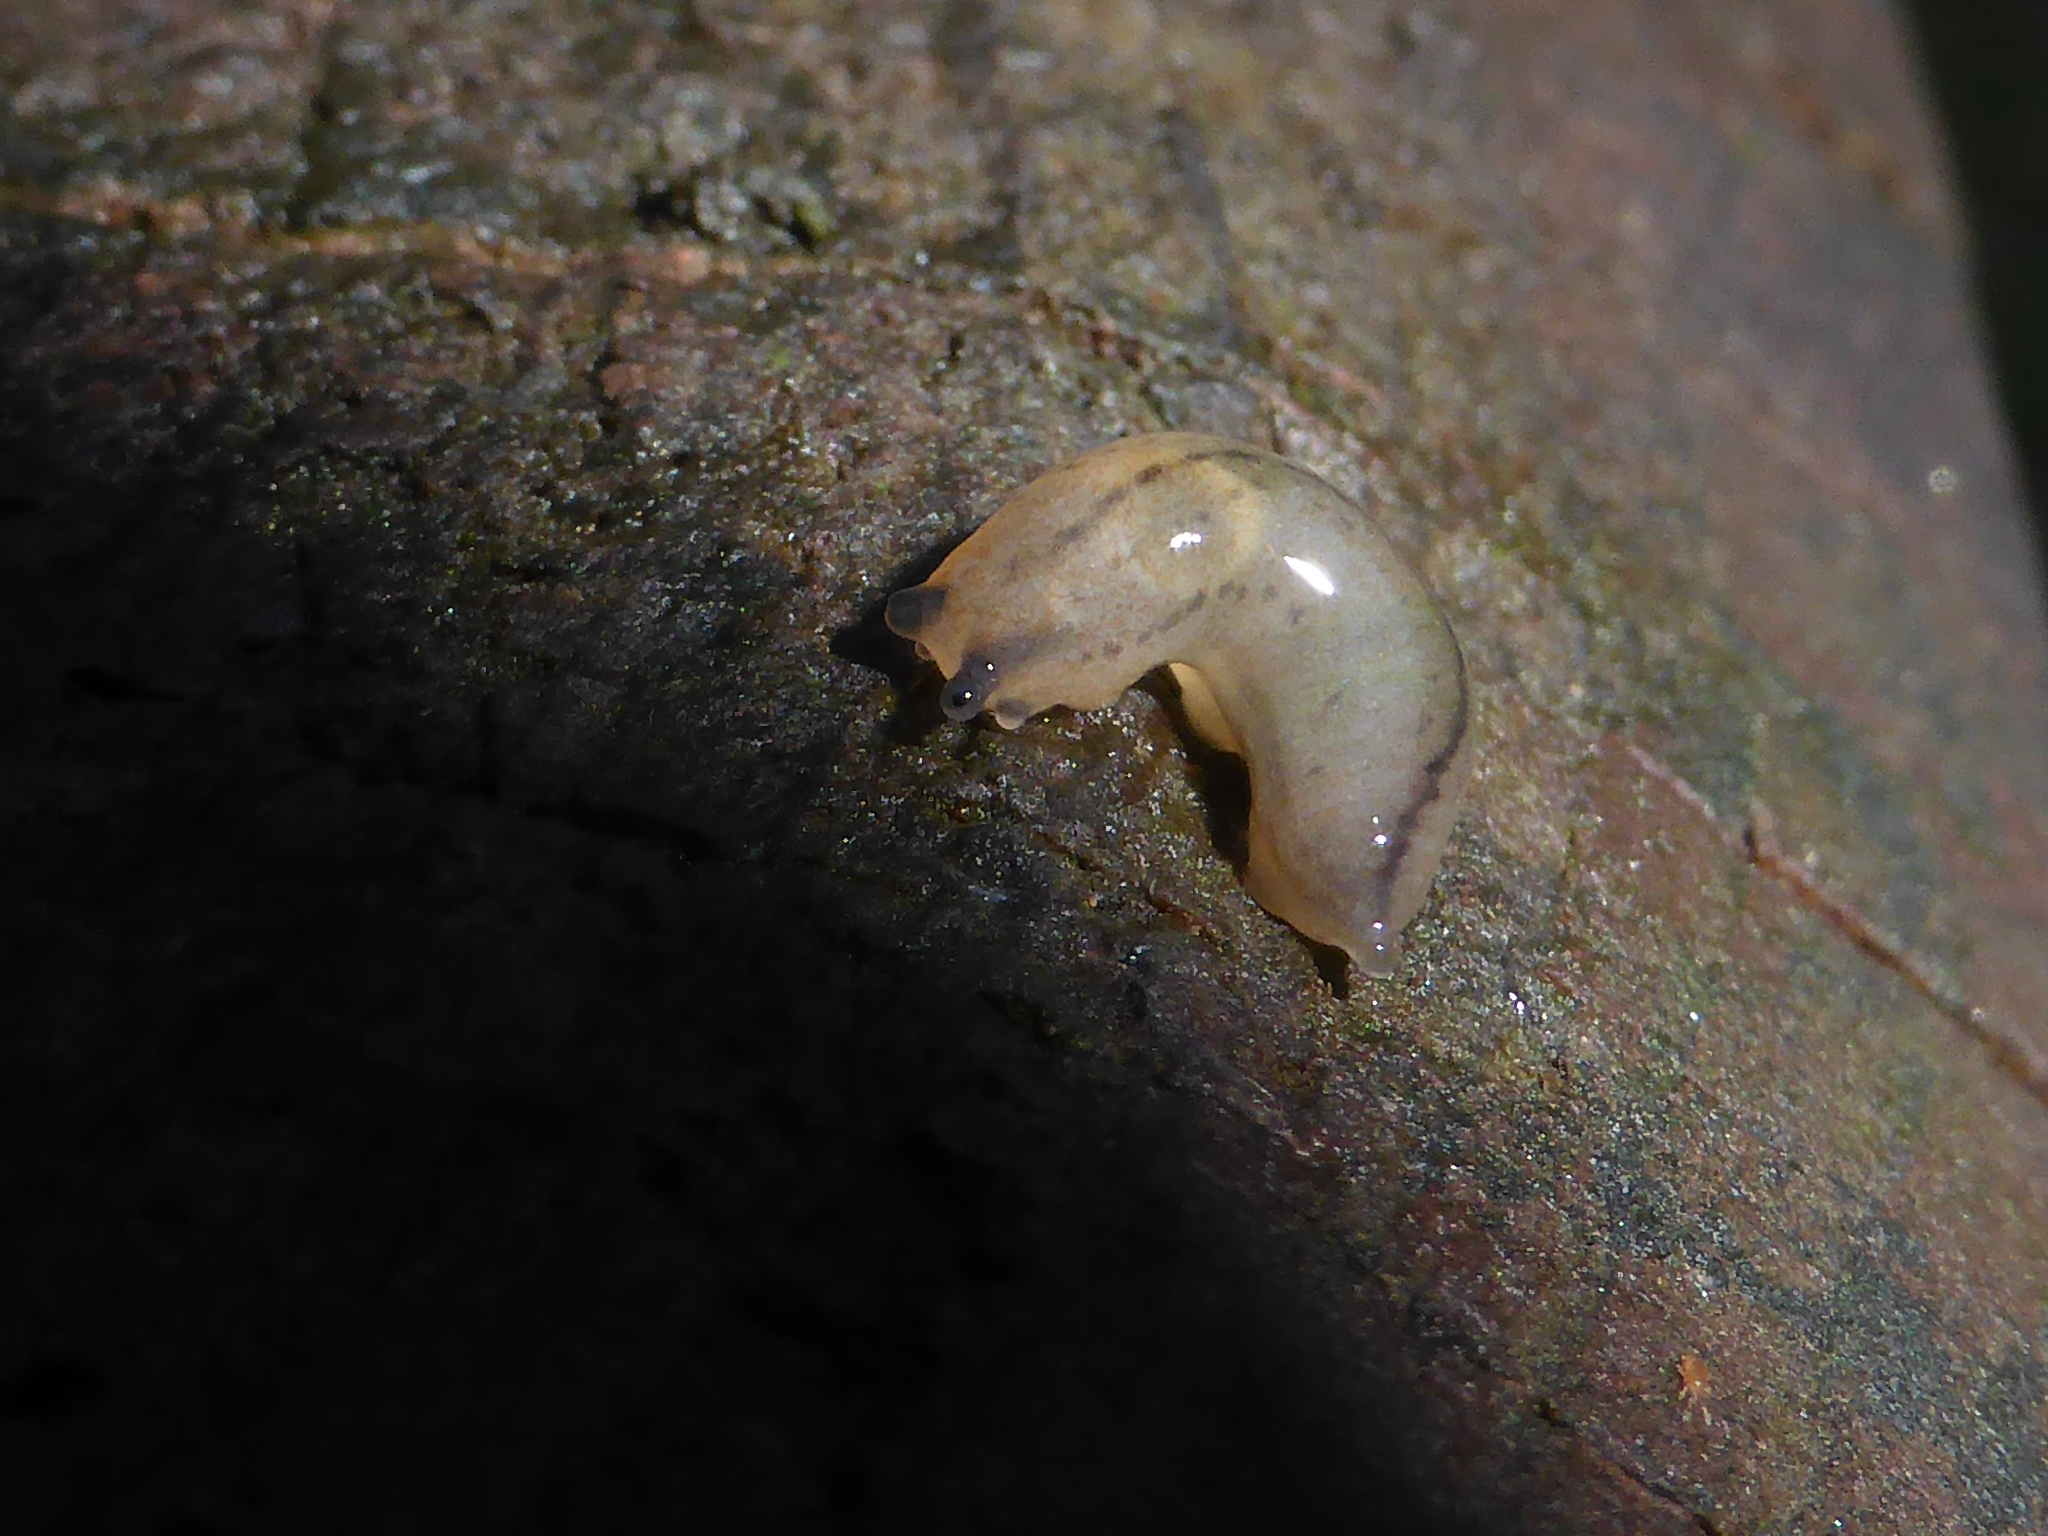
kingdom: Animalia
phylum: Mollusca
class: Gastropoda
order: Stylommatophora
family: Philomycidae
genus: Meghimatium
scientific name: Meghimatium bilineatum
